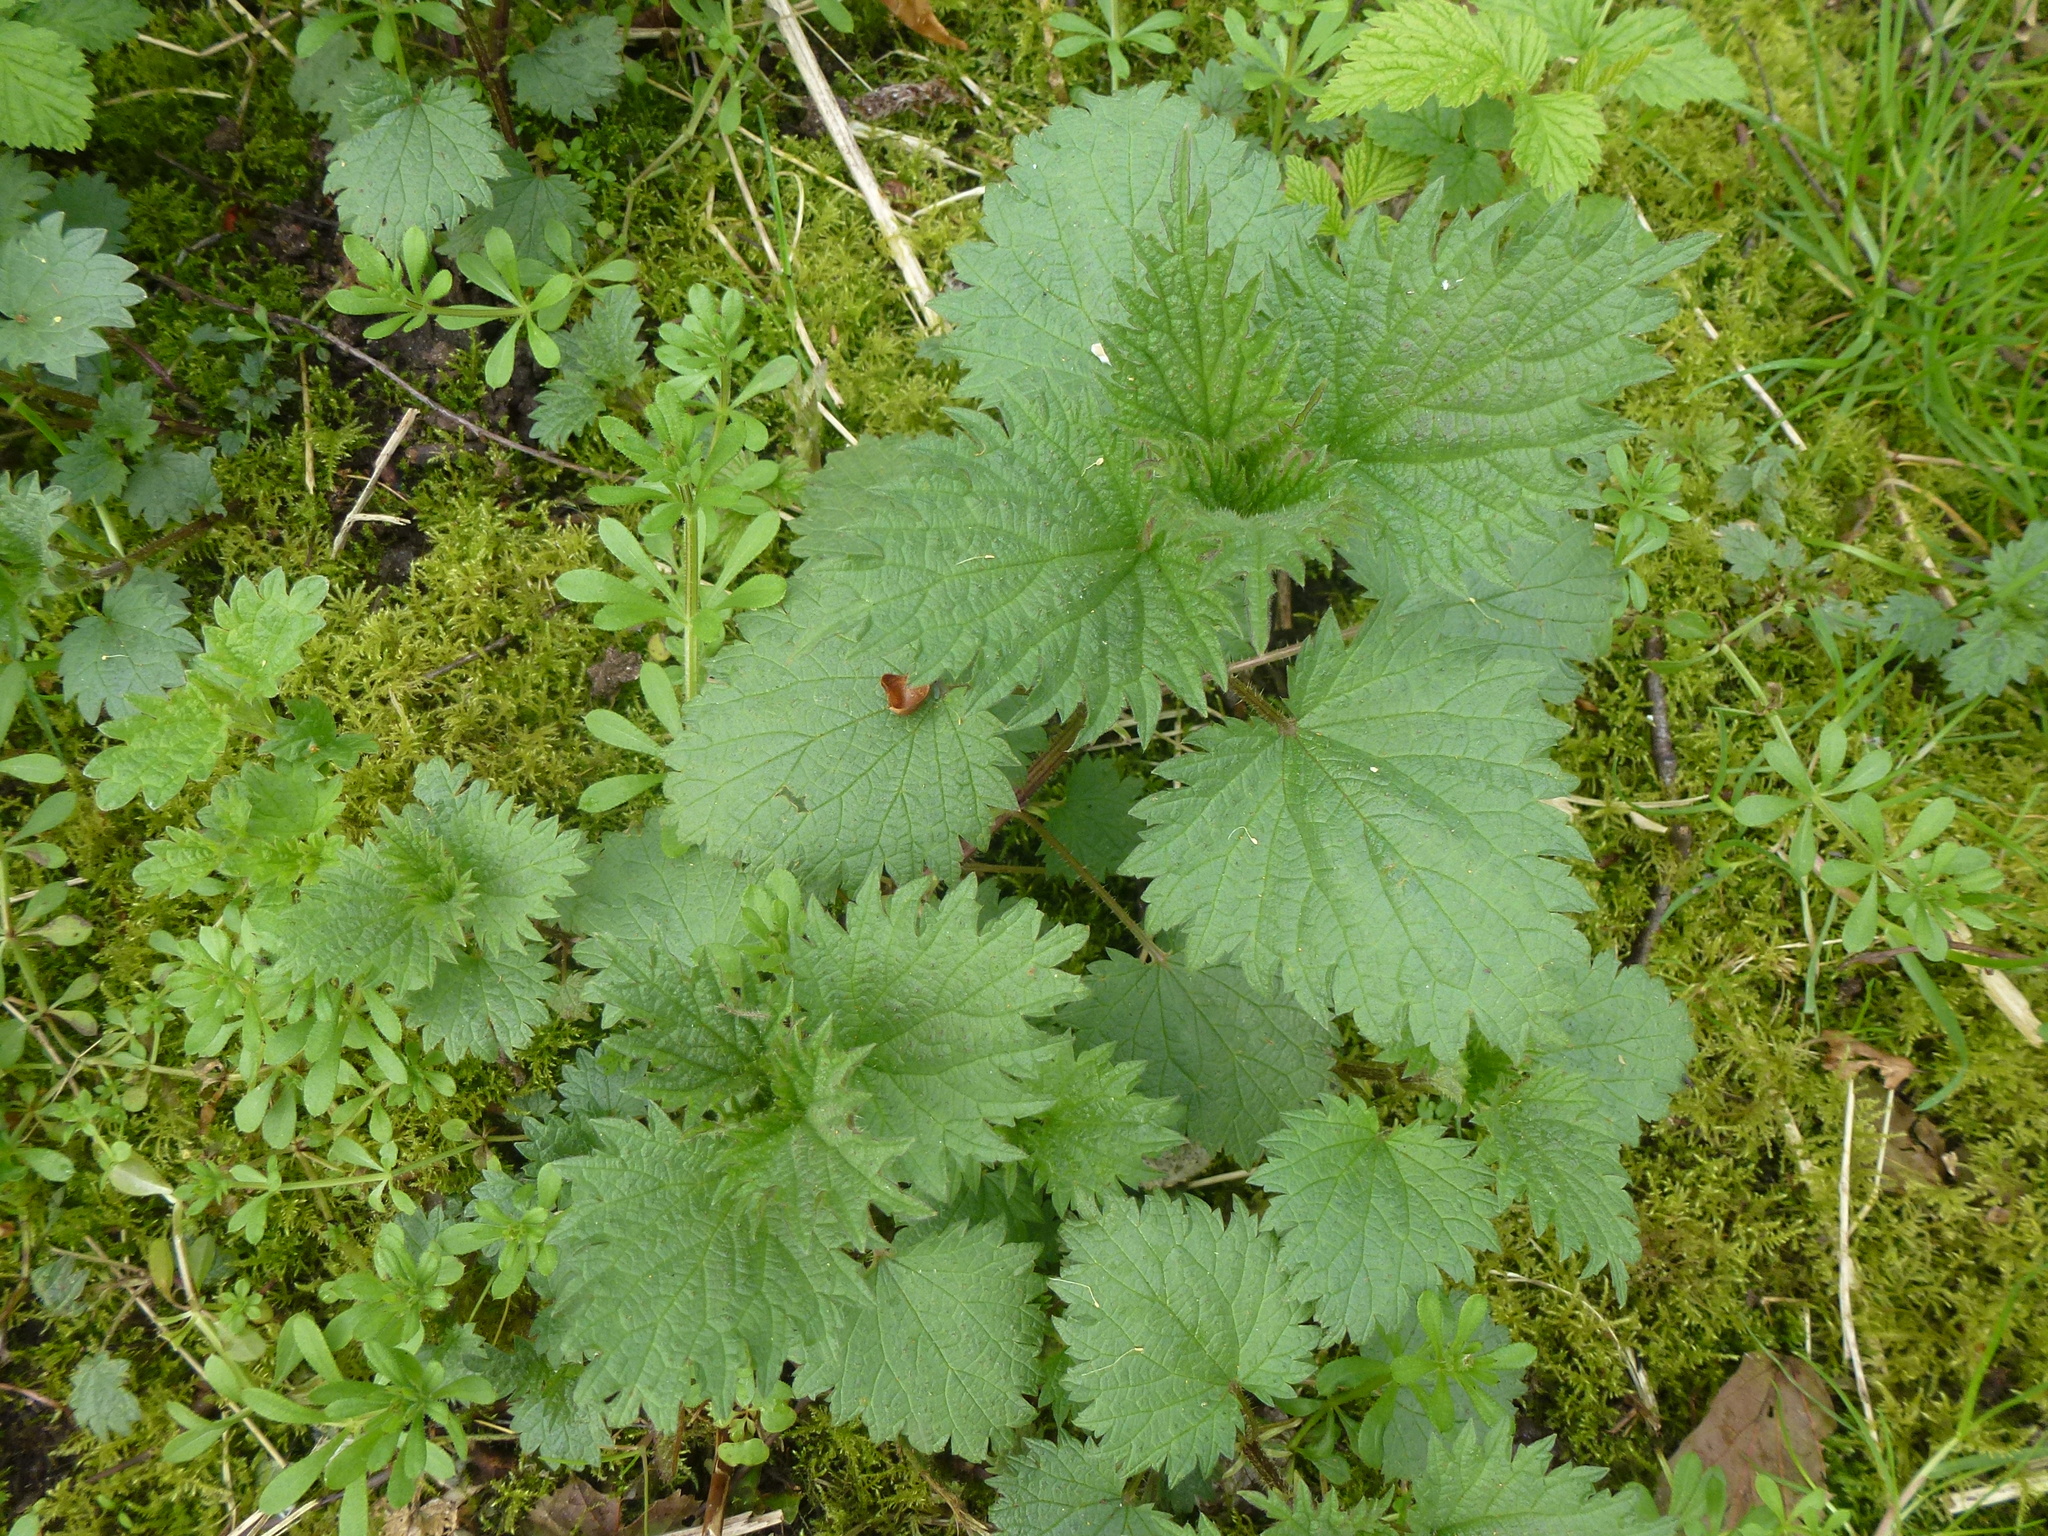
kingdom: Plantae
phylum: Tracheophyta
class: Magnoliopsida
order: Rosales
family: Urticaceae
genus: Urtica
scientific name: Urtica dioica
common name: Common nettle
